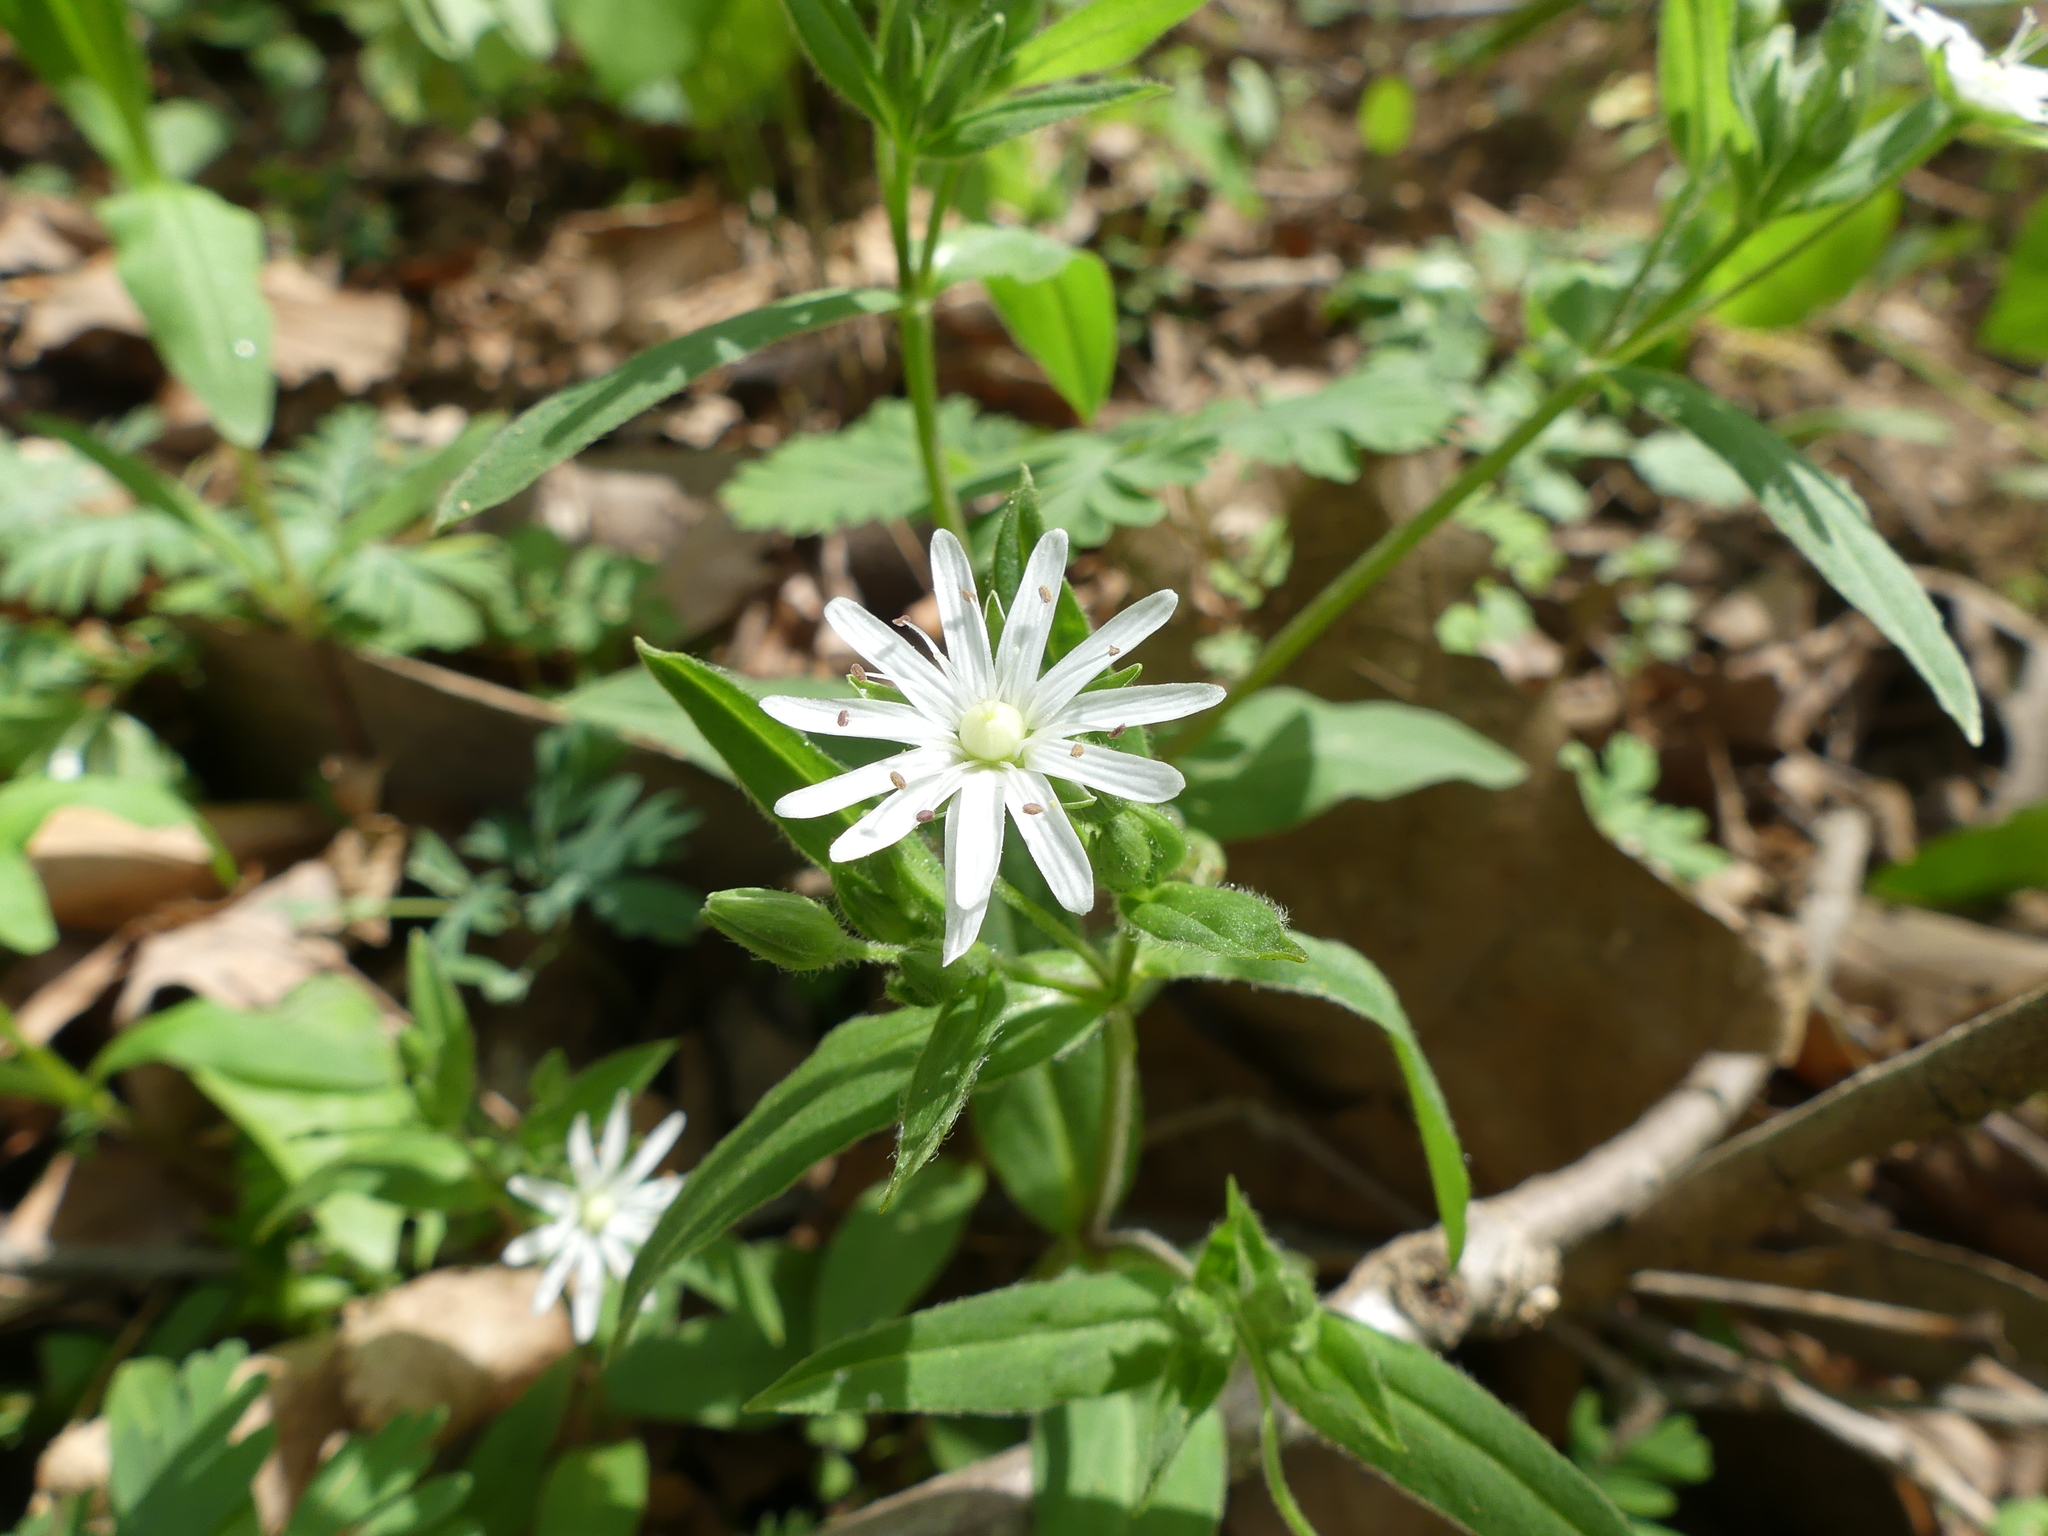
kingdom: Plantae
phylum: Tracheophyta
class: Magnoliopsida
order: Caryophyllales
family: Caryophyllaceae
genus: Stellaria
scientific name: Stellaria pubera
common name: Star chickweed
